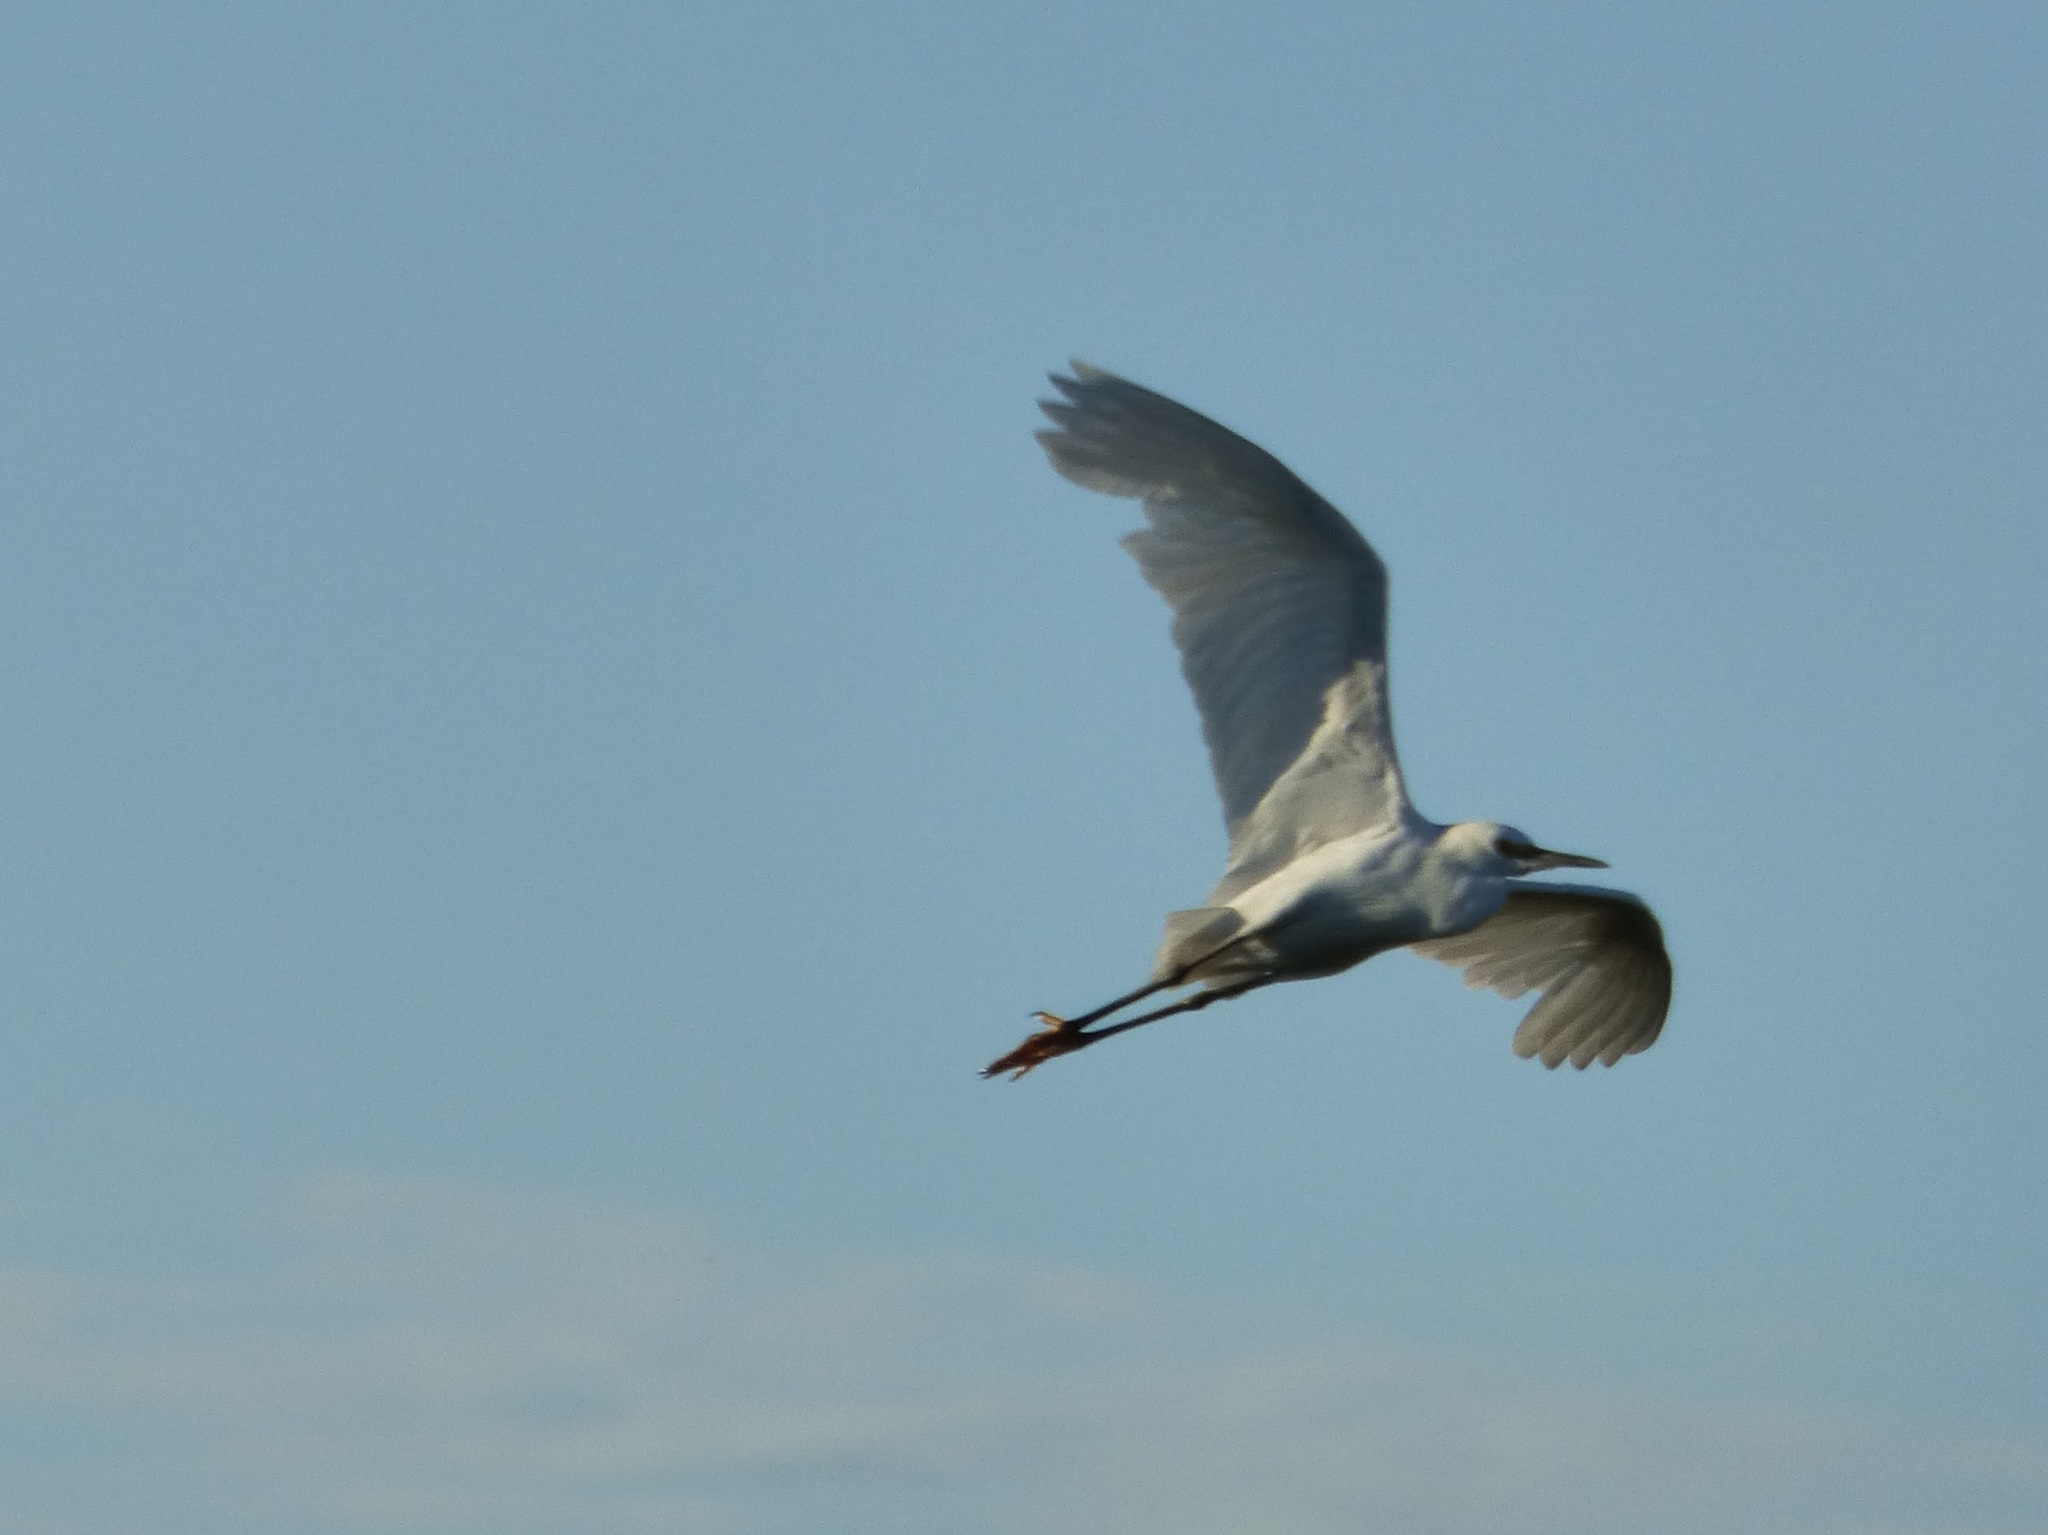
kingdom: Animalia
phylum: Chordata
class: Aves
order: Pelecaniformes
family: Ardeidae
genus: Ardea
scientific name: Ardea alba
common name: Great egret
